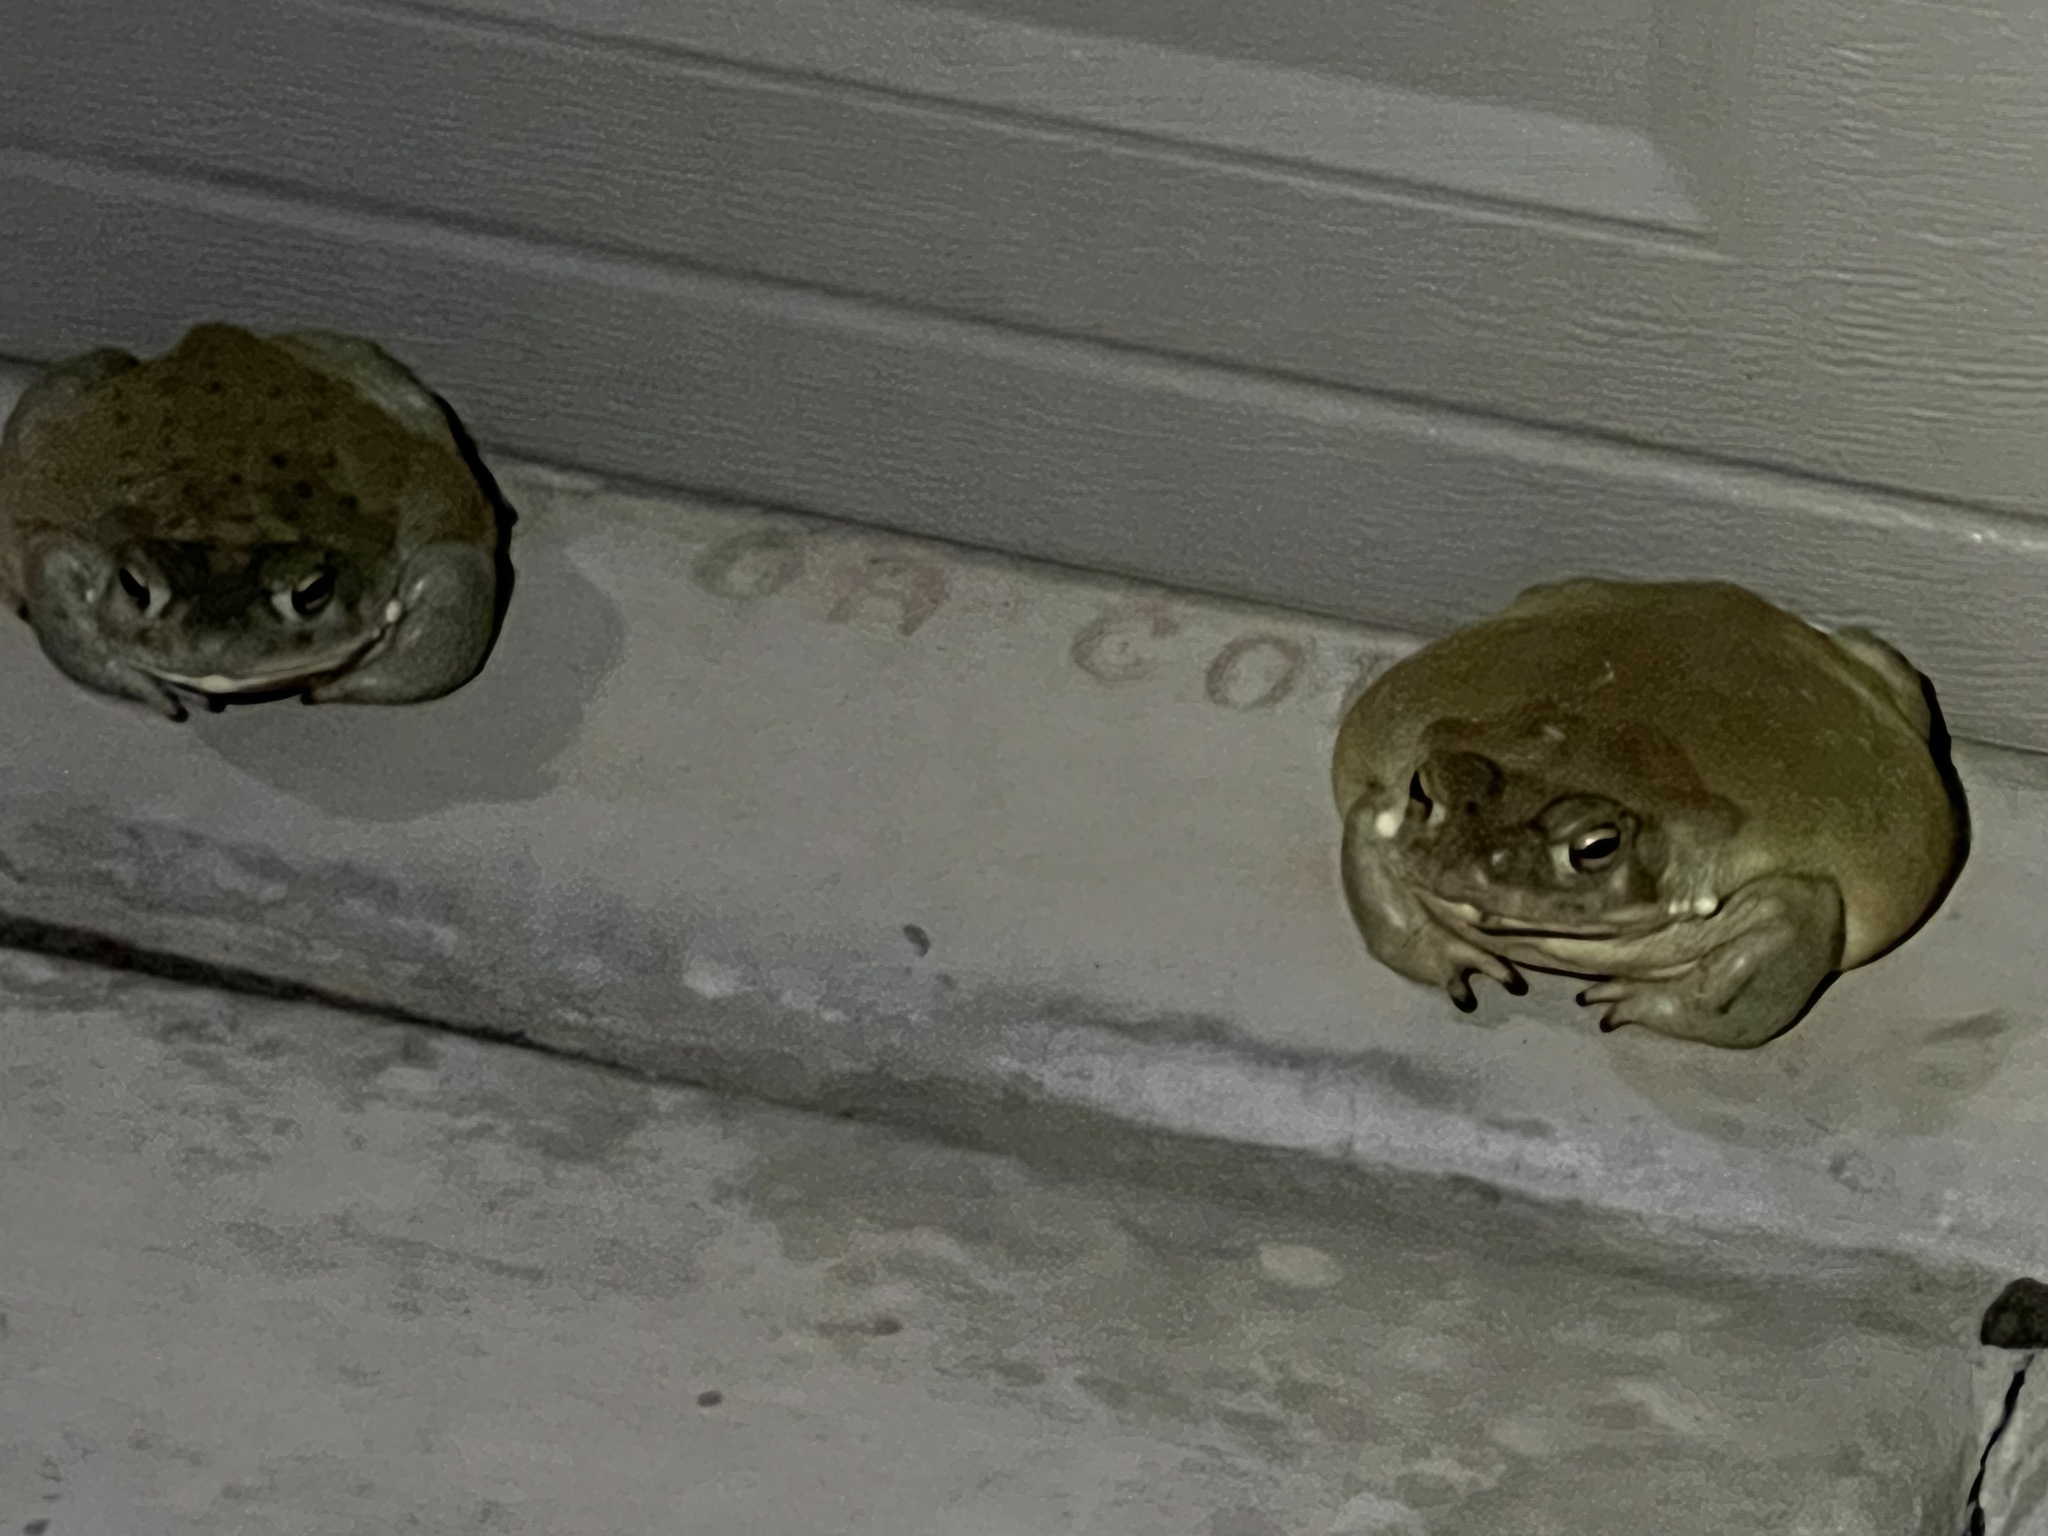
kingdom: Animalia
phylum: Chordata
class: Amphibia
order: Anura
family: Bufonidae
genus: Incilius
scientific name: Incilius alvarius
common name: Sonoran desert toad
